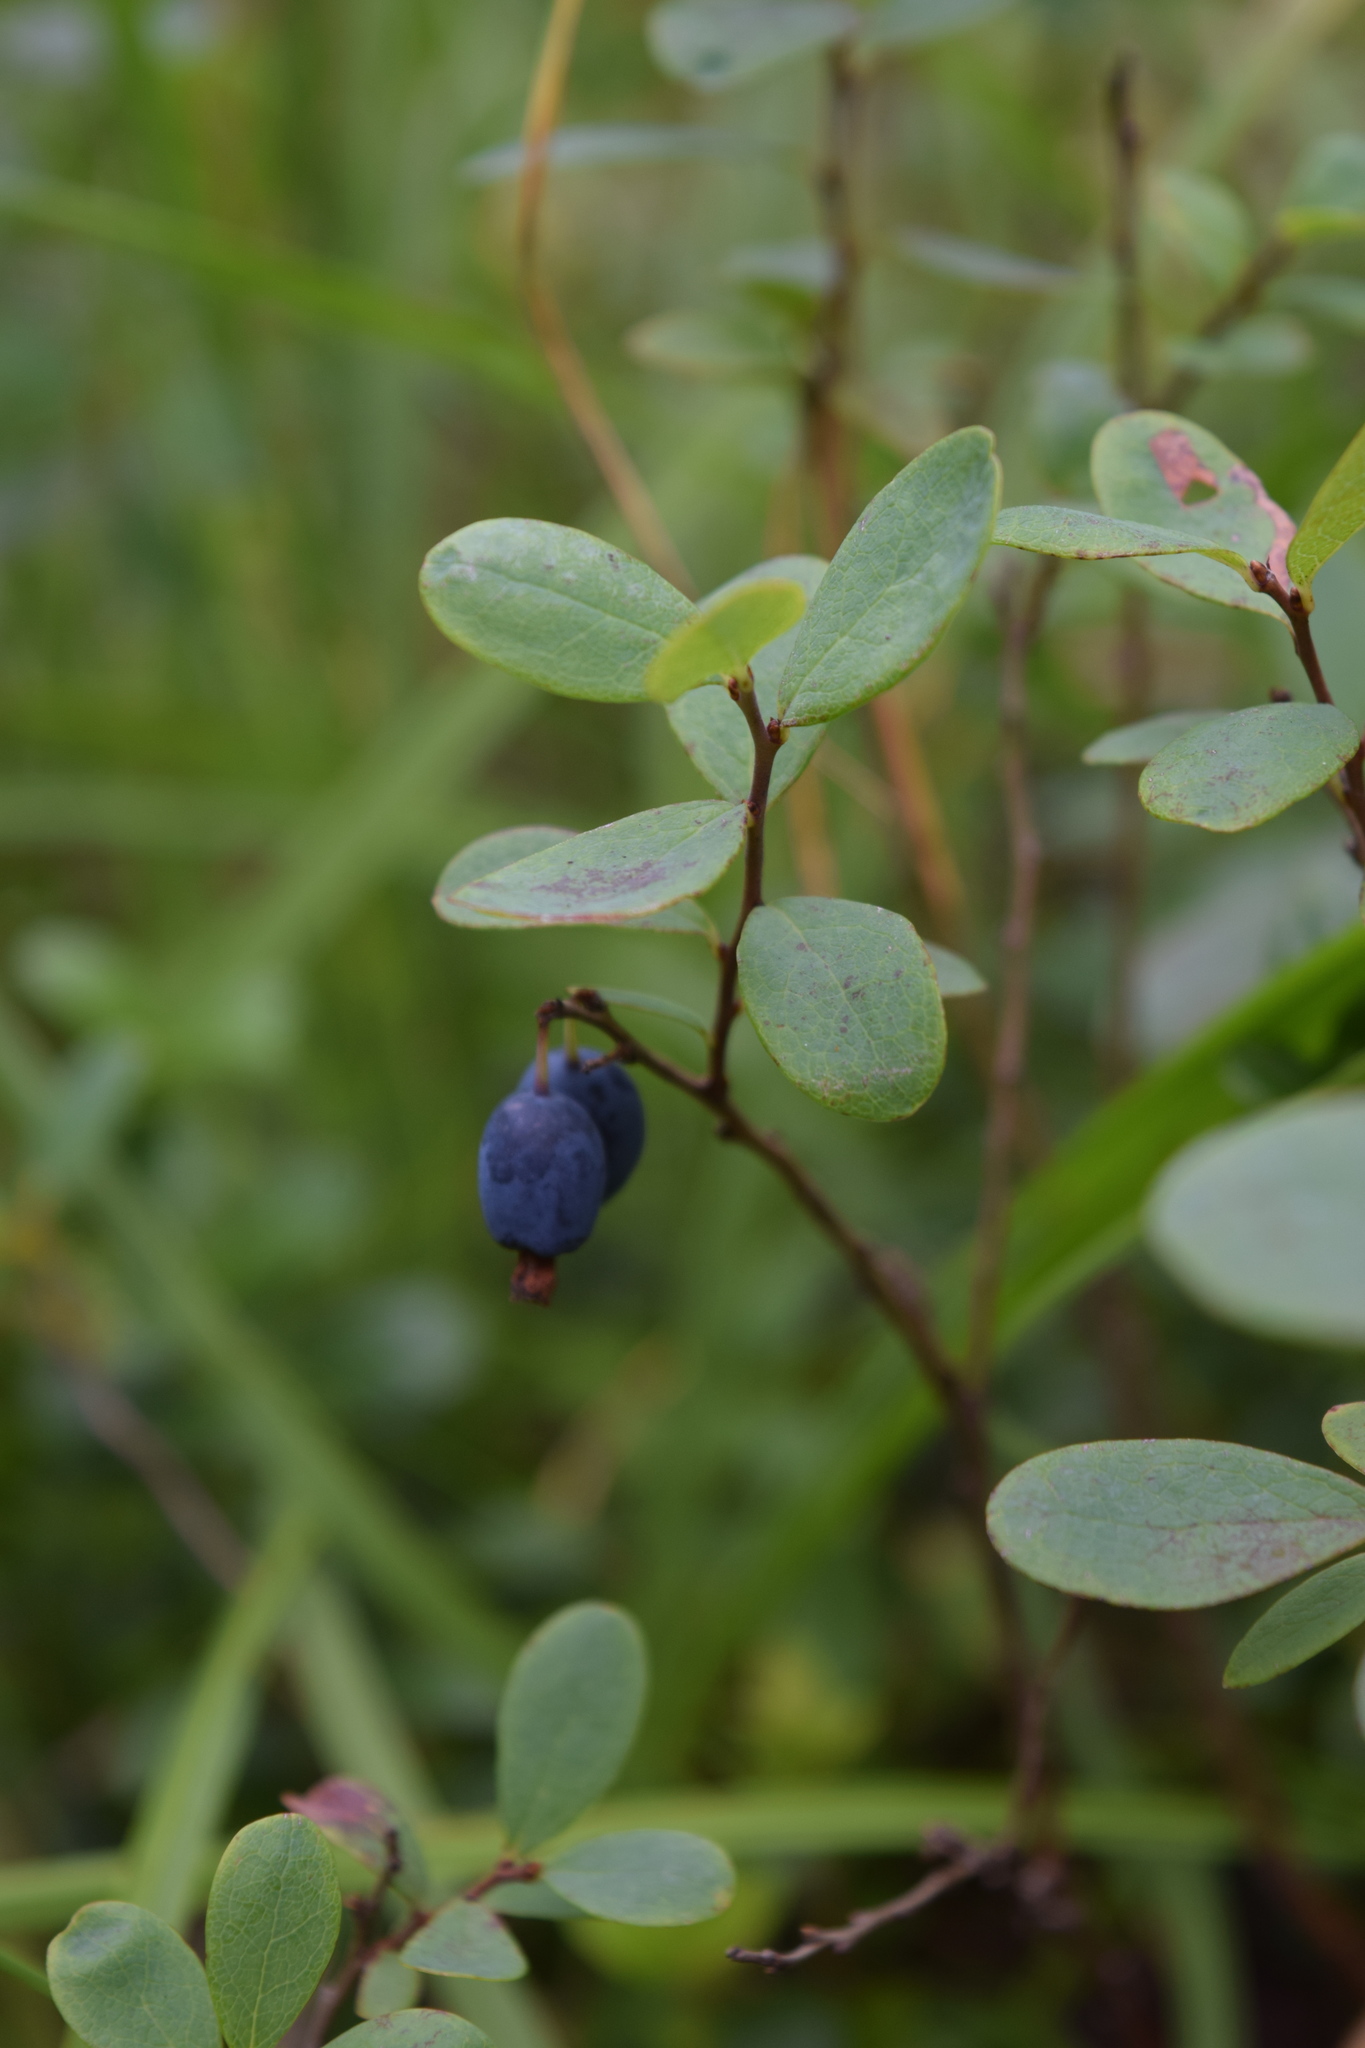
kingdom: Plantae
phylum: Tracheophyta
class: Magnoliopsida
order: Ericales
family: Ericaceae
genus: Vaccinium
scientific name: Vaccinium uliginosum
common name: Bog bilberry
